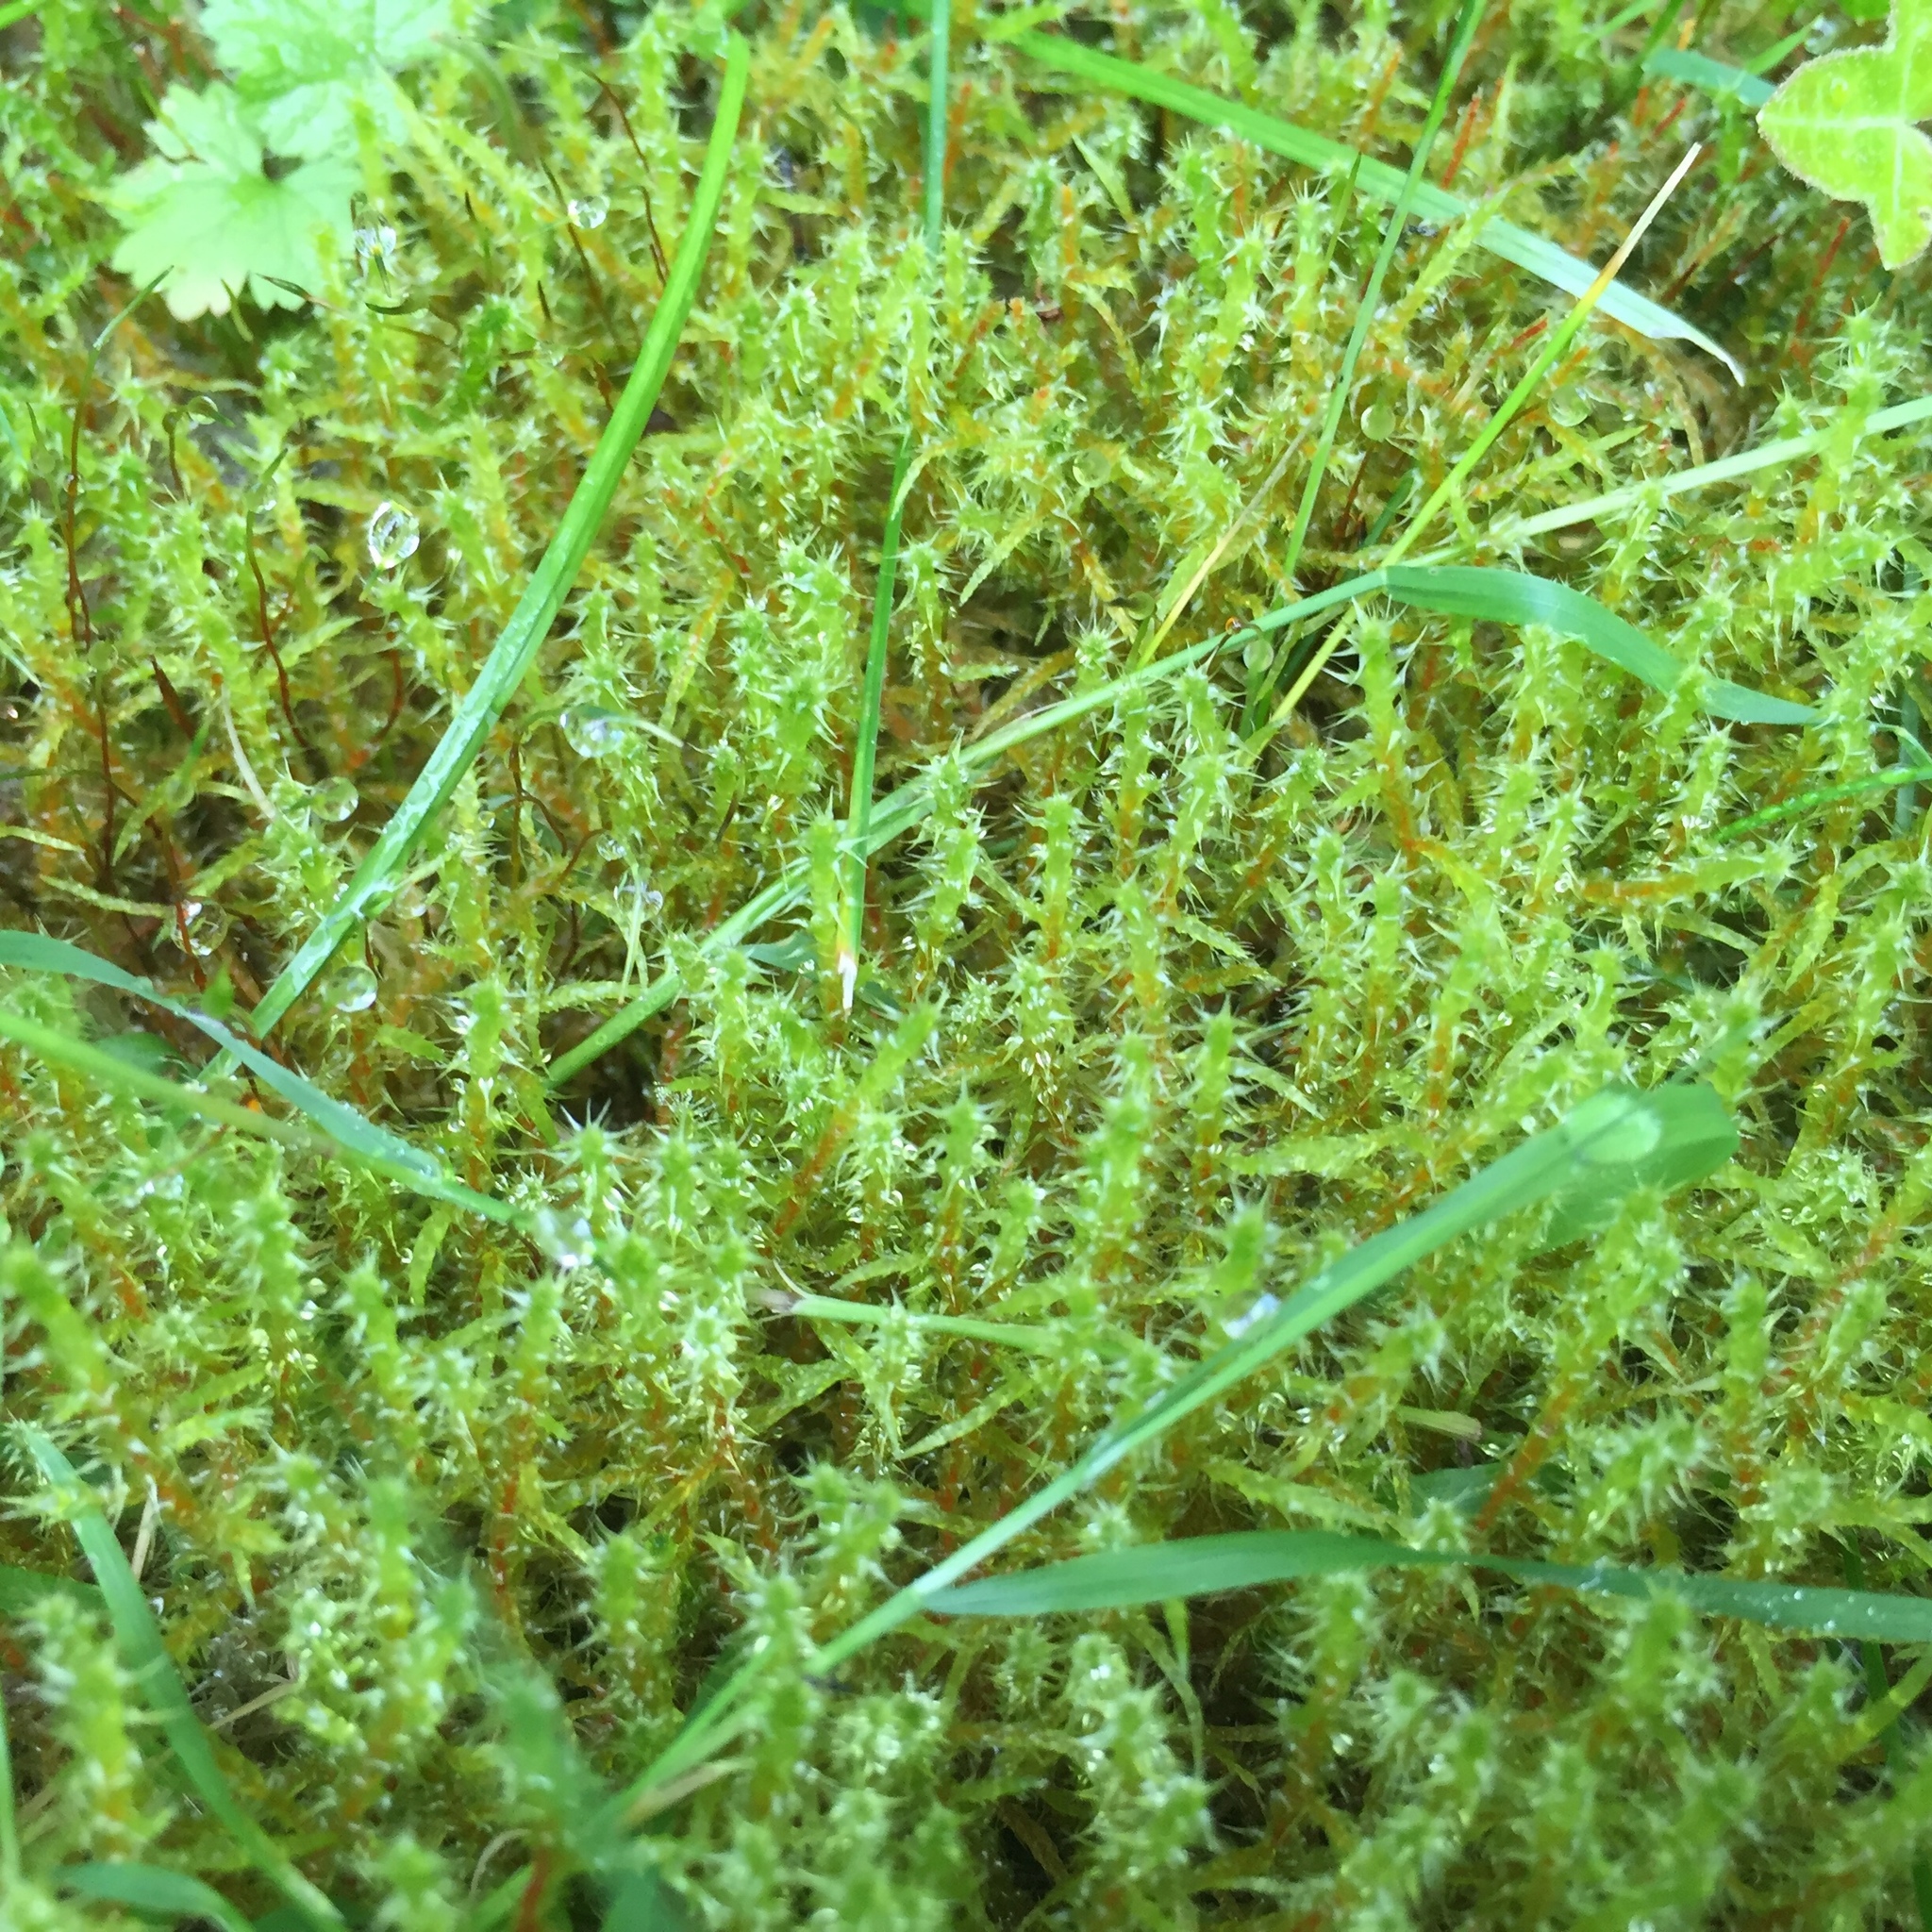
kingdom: Plantae
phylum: Bryophyta
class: Bryopsida
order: Hypnales
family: Hylocomiaceae
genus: Rhytidiadelphus
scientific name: Rhytidiadelphus squarrosus
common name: Springy turf-moss
